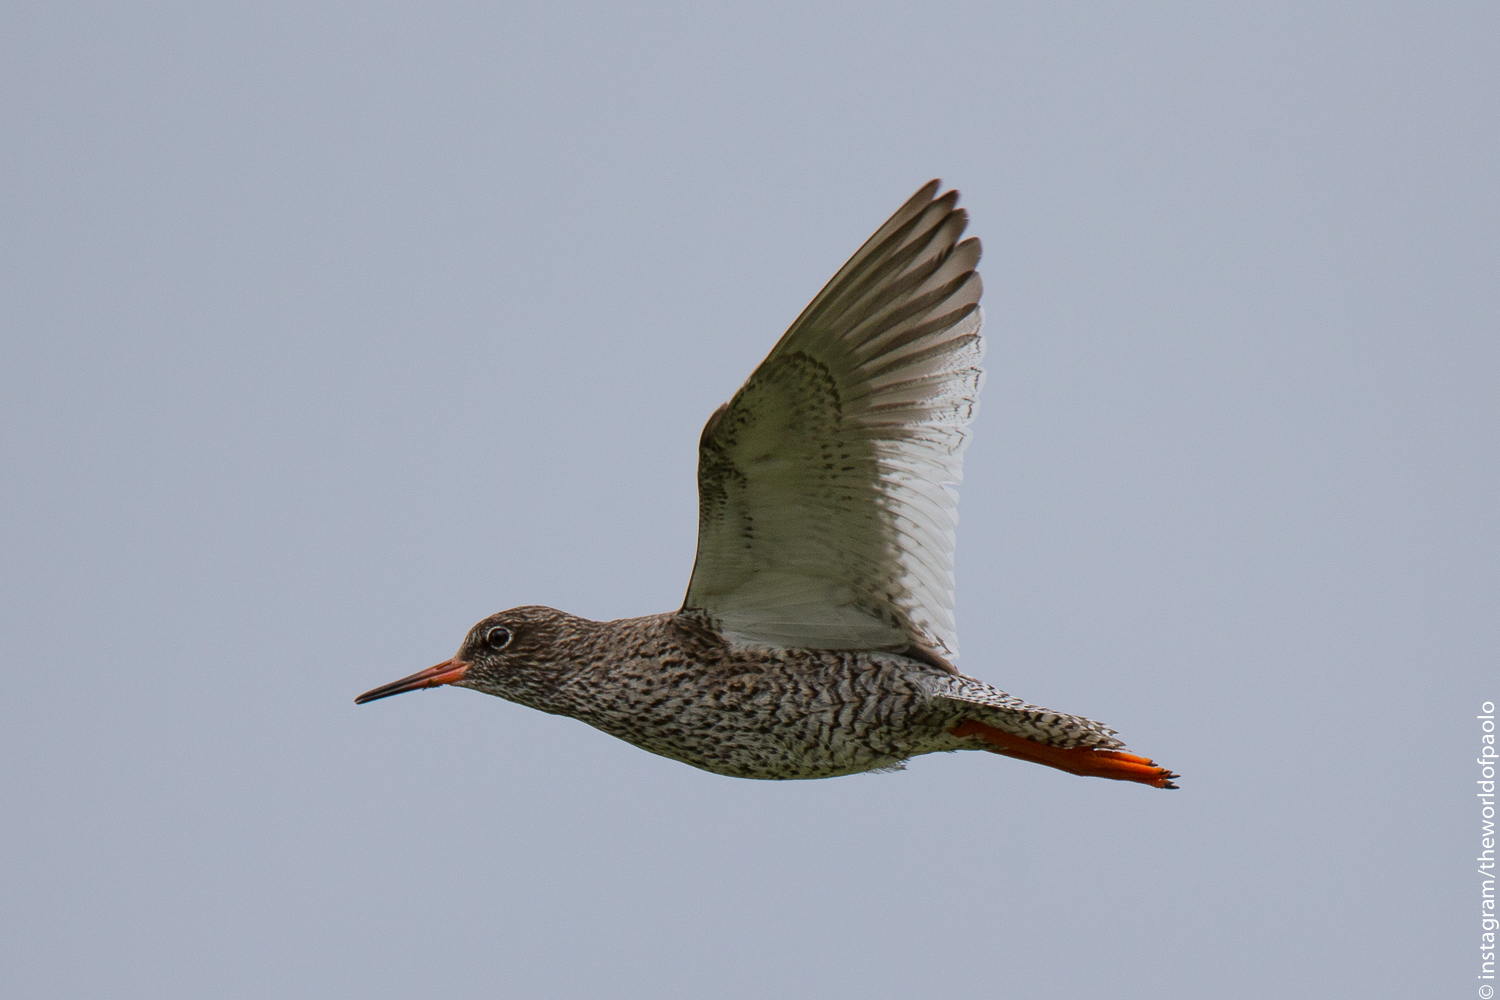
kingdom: Animalia
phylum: Chordata
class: Aves
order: Charadriiformes
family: Scolopacidae
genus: Tringa
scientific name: Tringa totanus
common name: Common redshank
